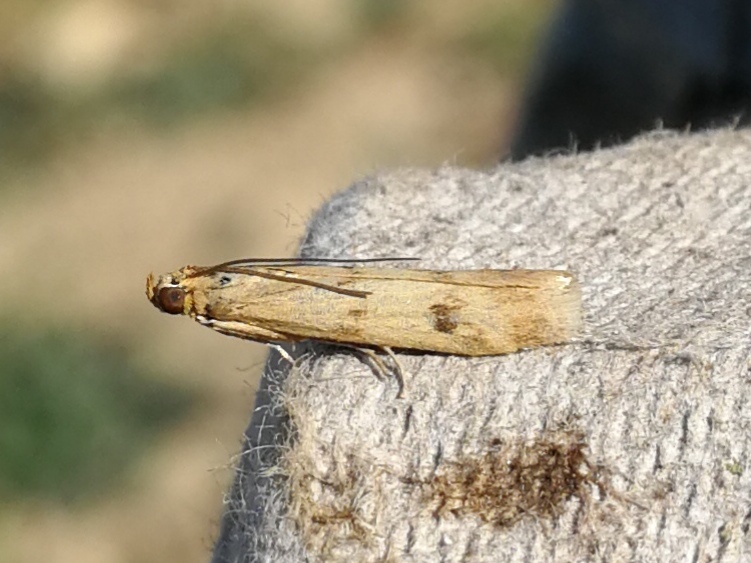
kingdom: Animalia
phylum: Arthropoda
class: Insecta
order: Lepidoptera
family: Pyralidae
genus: Homoeosoma
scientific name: Homoeosoma sinuella
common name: Twin-barred knot-horn
